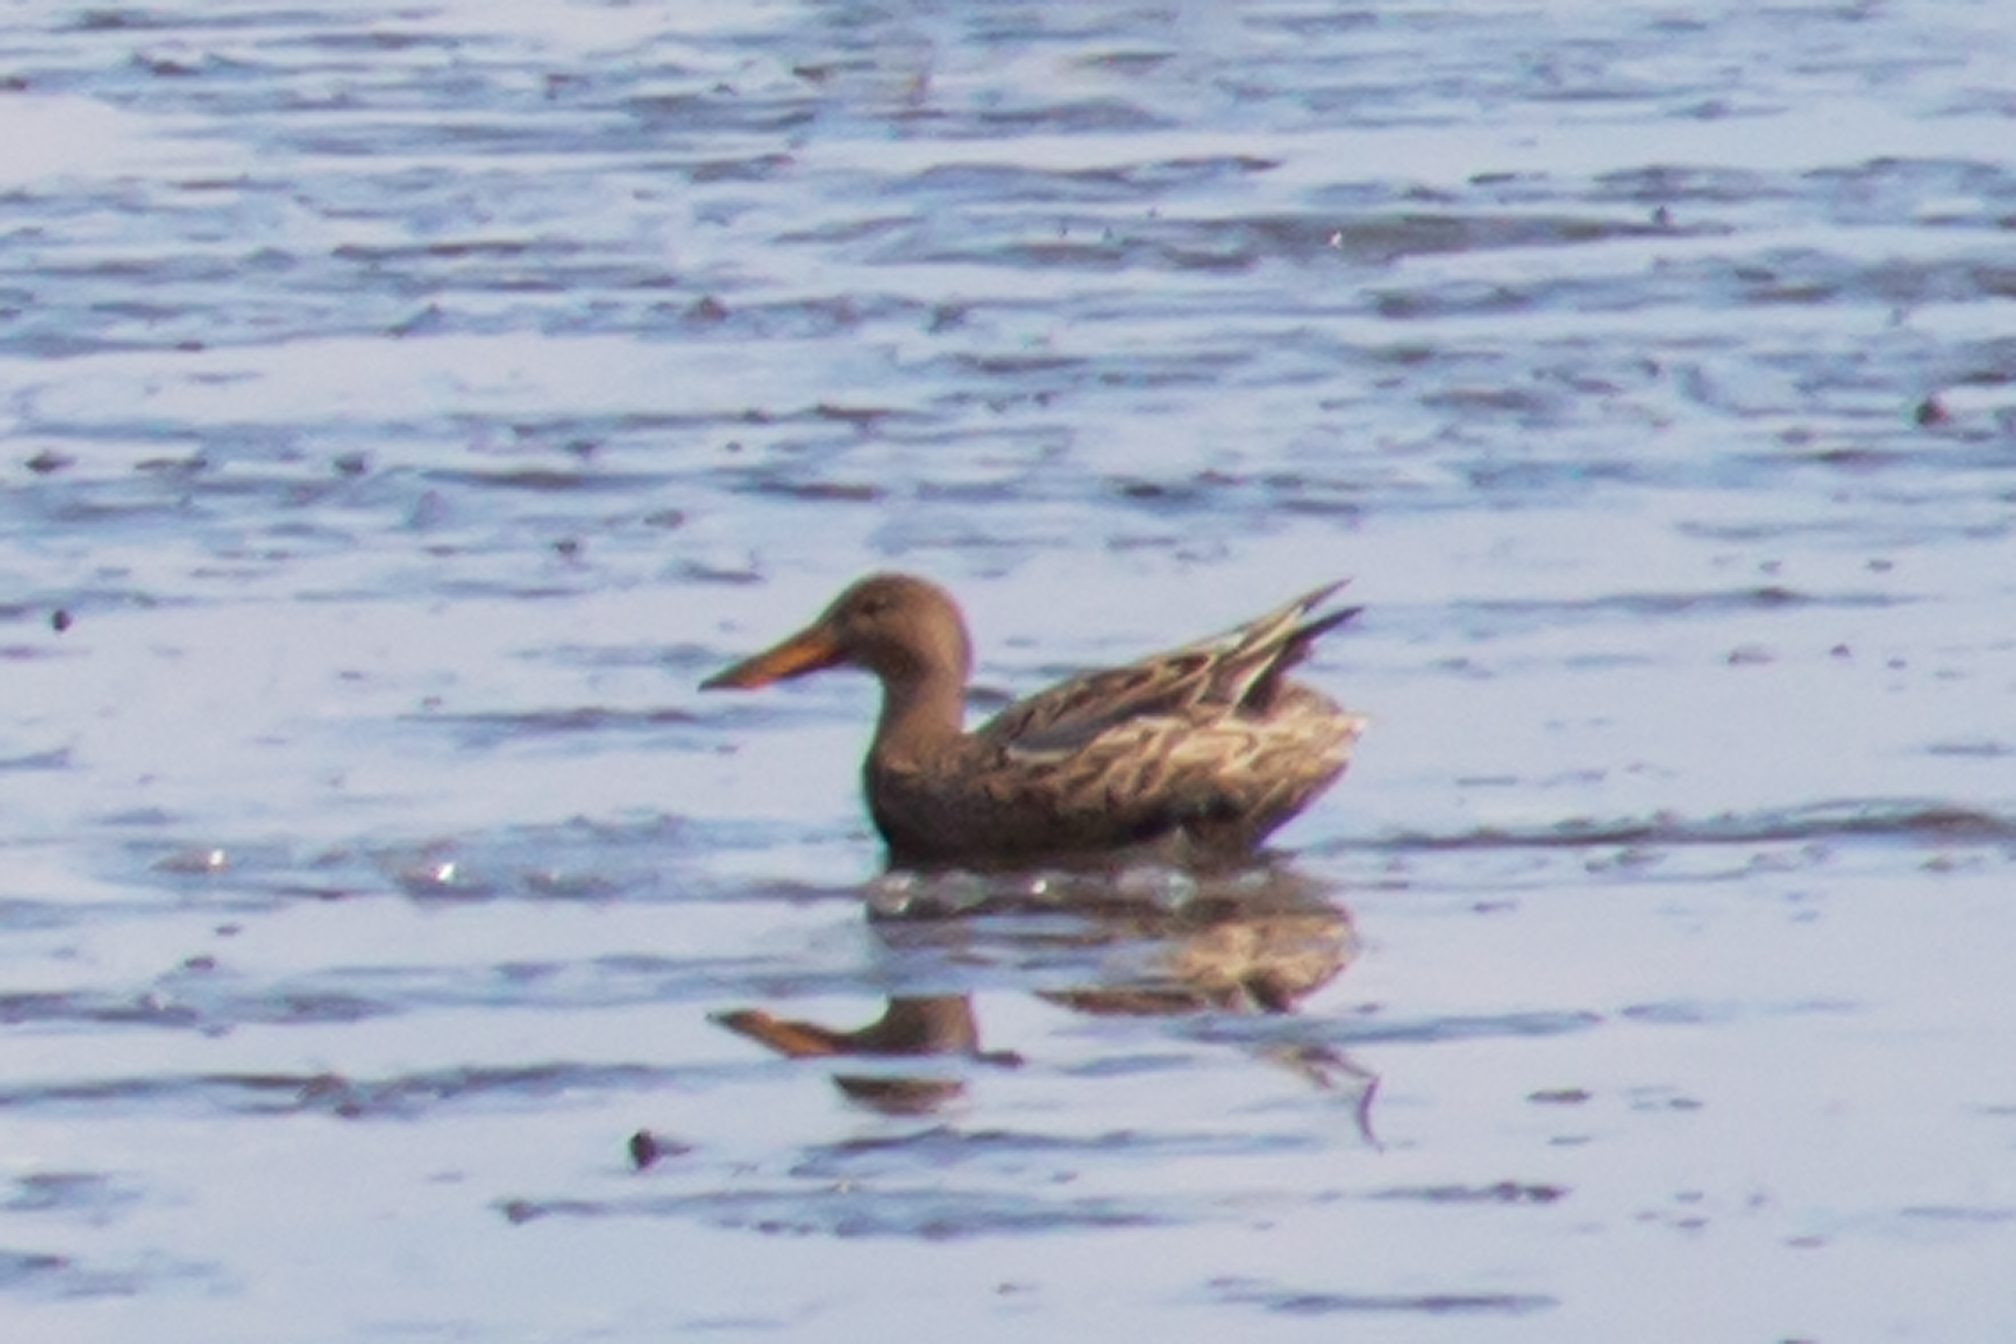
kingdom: Animalia
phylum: Chordata
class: Aves
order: Anseriformes
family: Anatidae
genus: Spatula
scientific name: Spatula clypeata
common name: Northern shoveler
